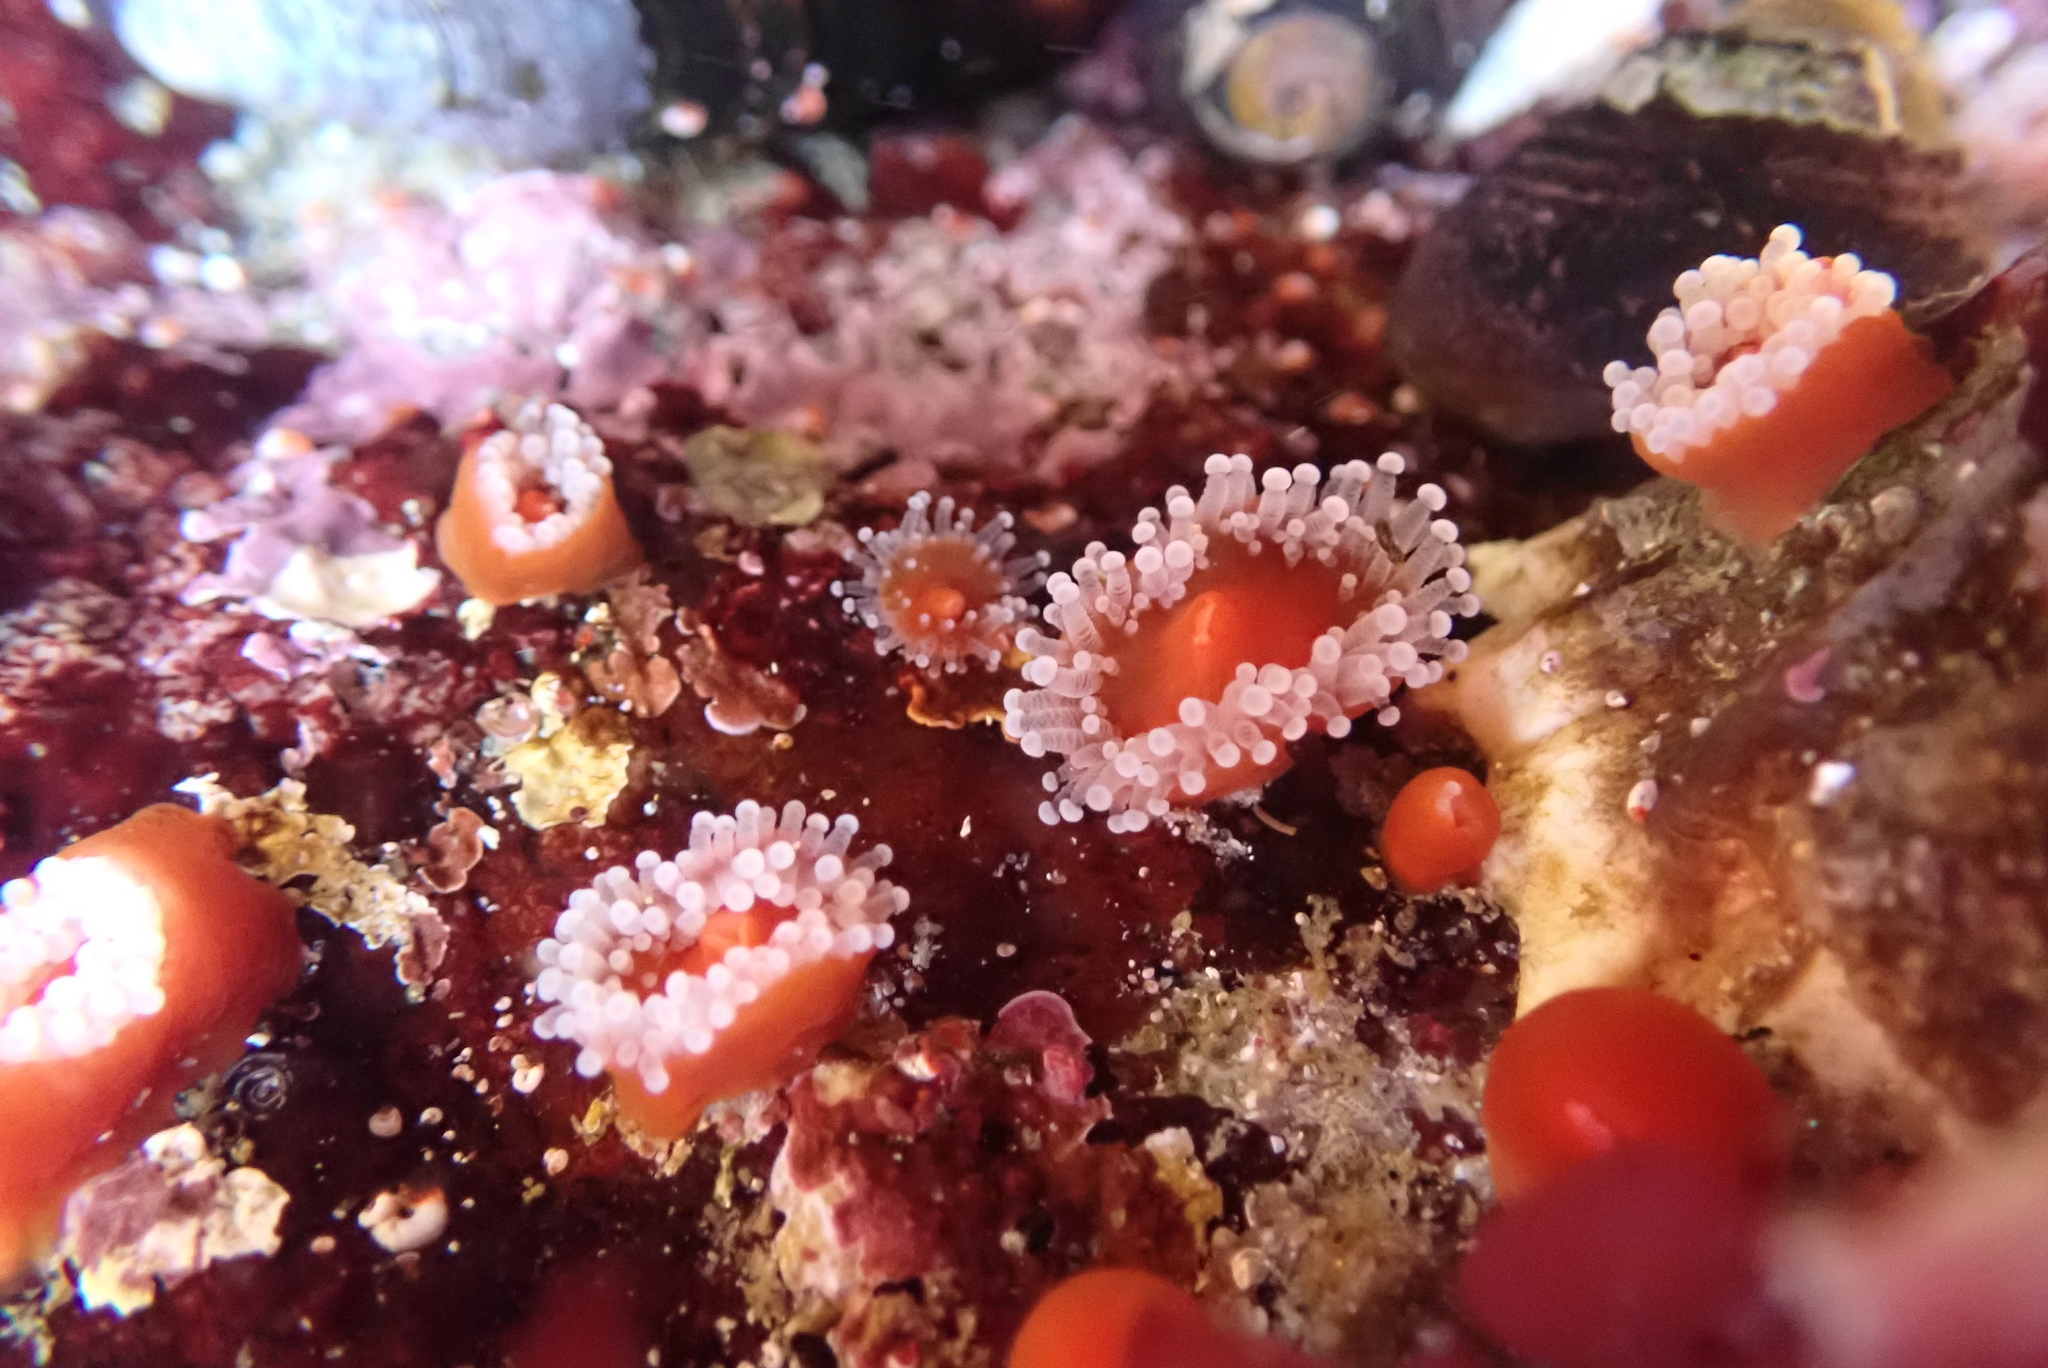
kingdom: Animalia
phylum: Cnidaria
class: Anthozoa
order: Corallimorpharia
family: Corallimorphidae
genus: Corynactis
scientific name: Corynactis californica
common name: Strawberry corallimorpharian
